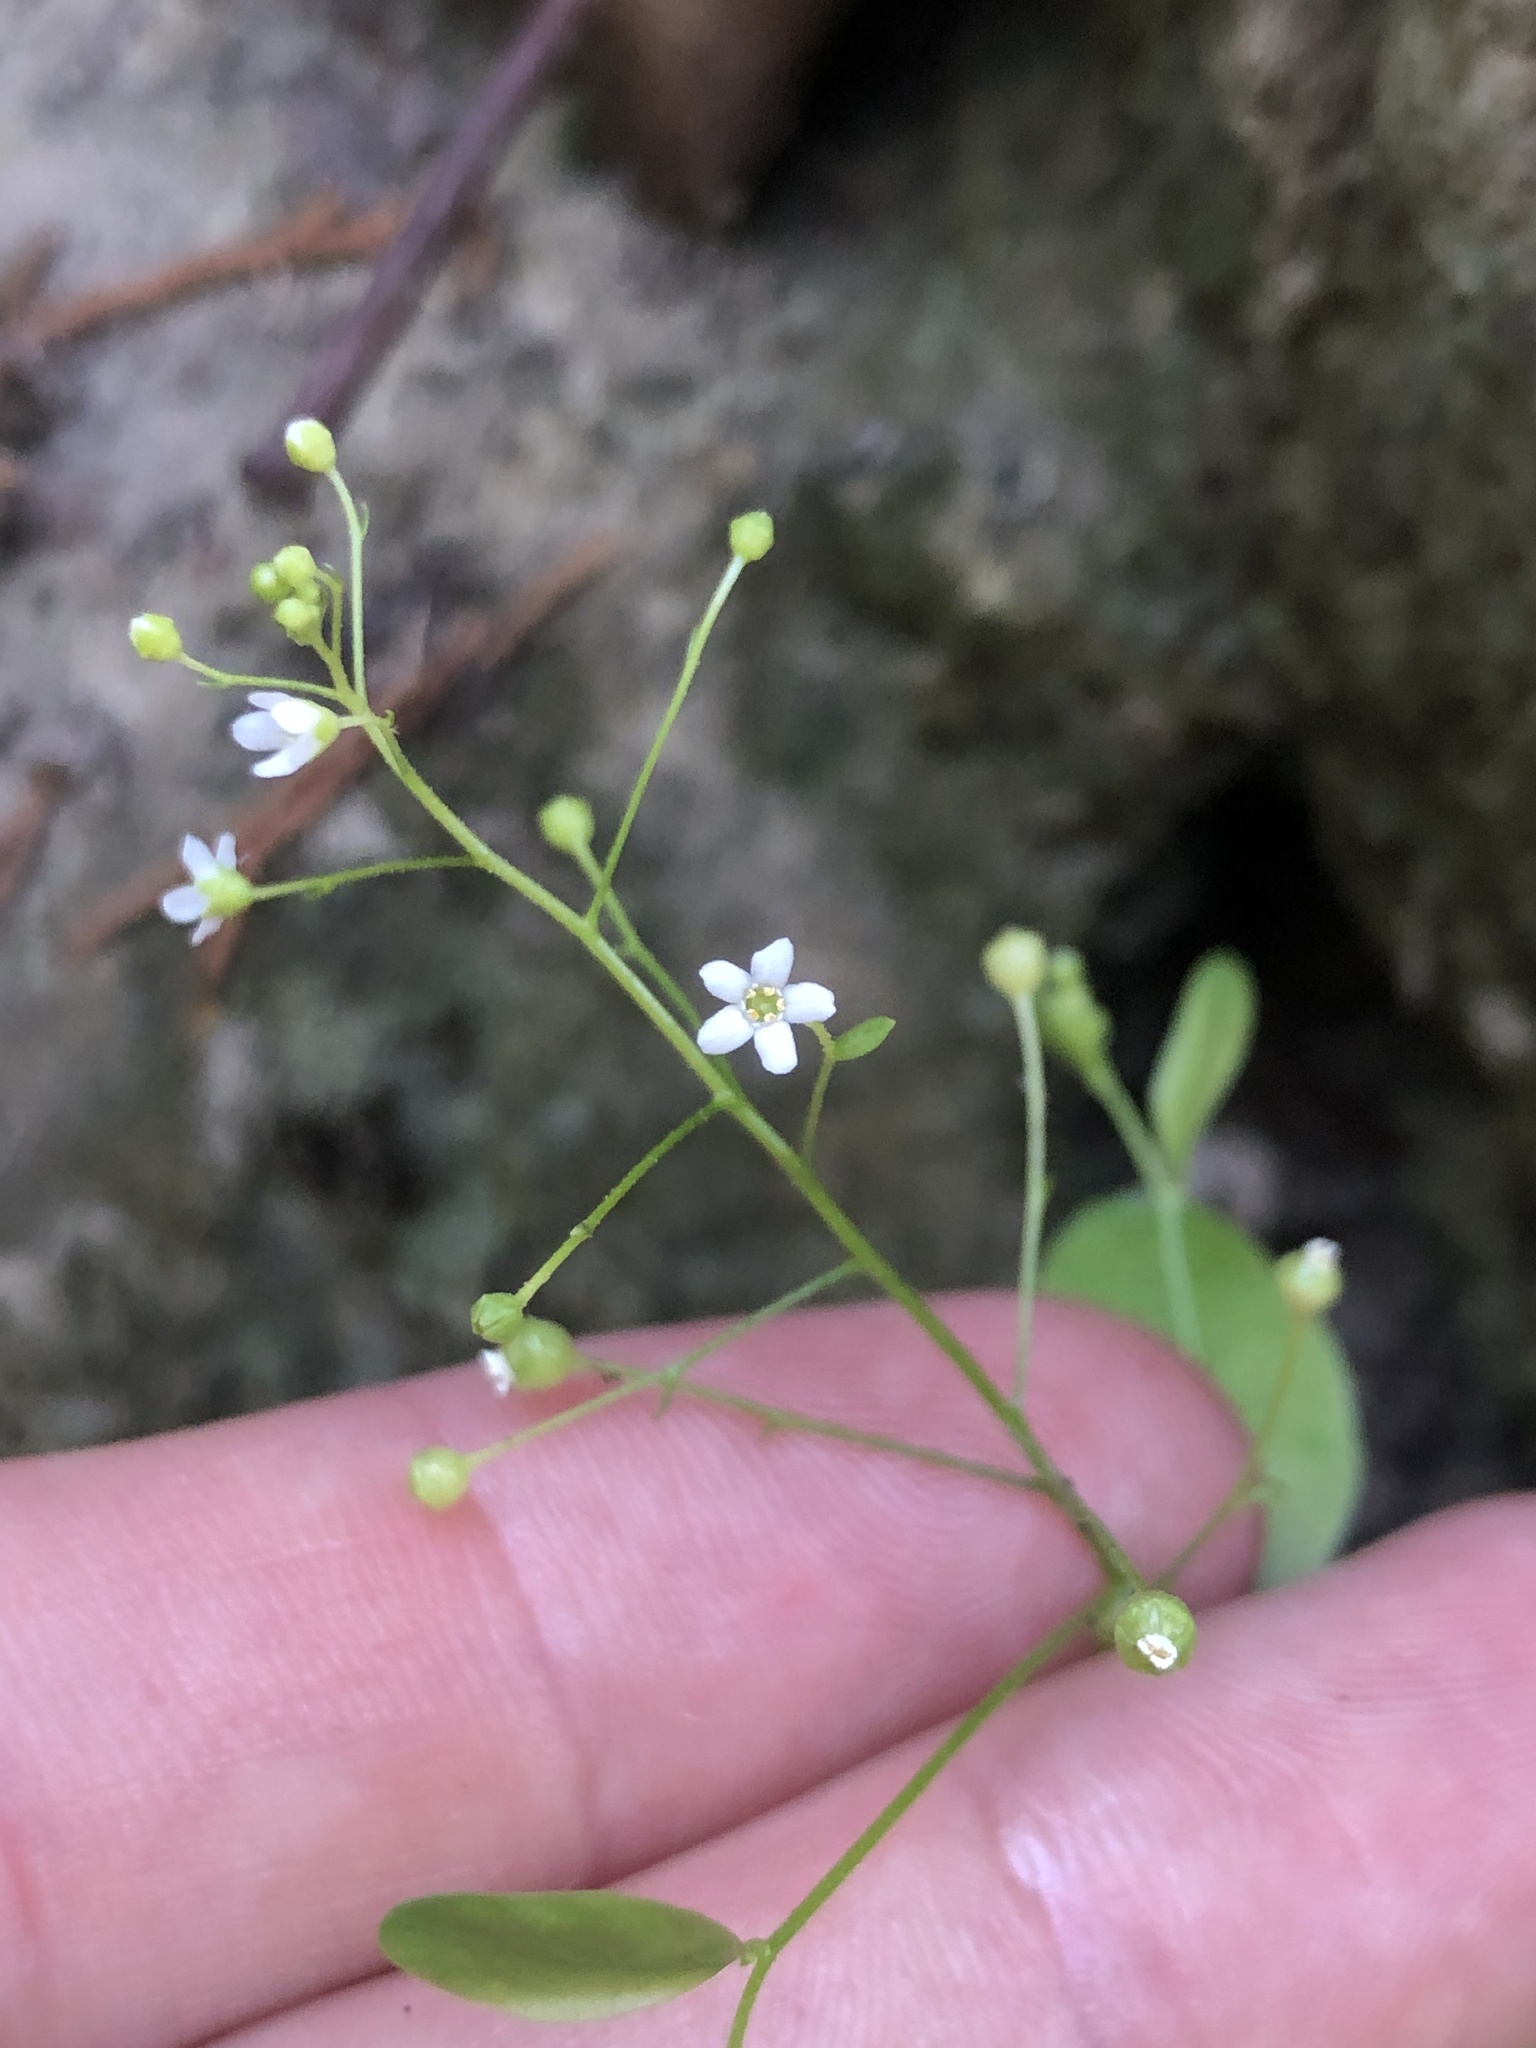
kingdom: Plantae
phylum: Tracheophyta
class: Magnoliopsida
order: Ericales
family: Primulaceae
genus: Samolus
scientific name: Samolus parviflorus
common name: False water pimpernel
